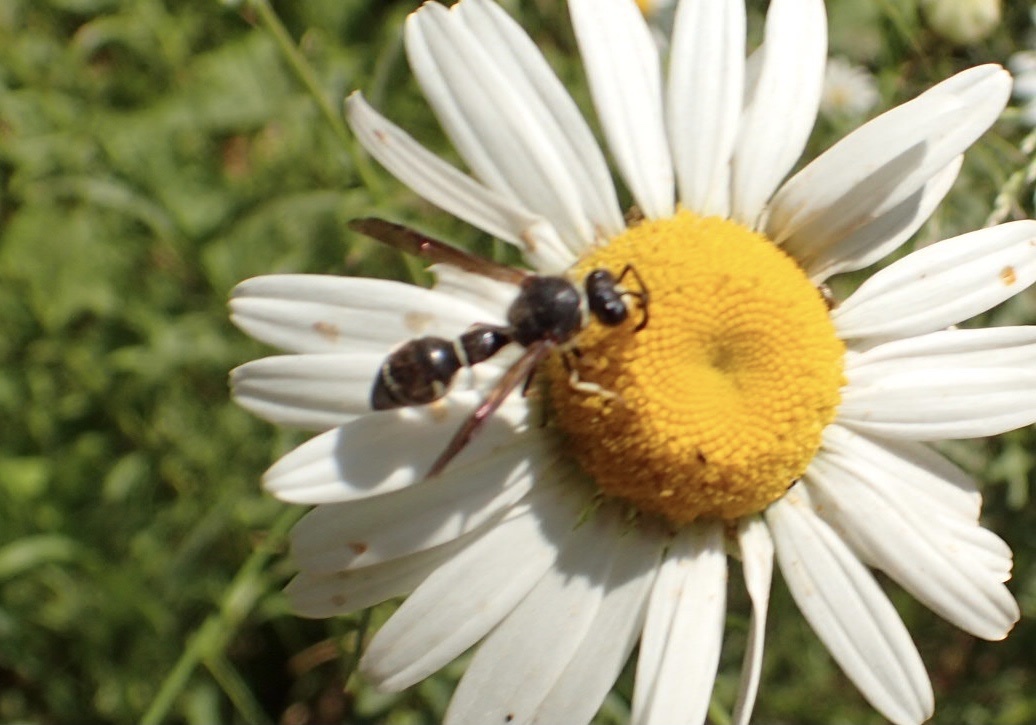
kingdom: Animalia
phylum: Arthropoda
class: Insecta
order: Hymenoptera
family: Vespidae
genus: Eumenes
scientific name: Eumenes
